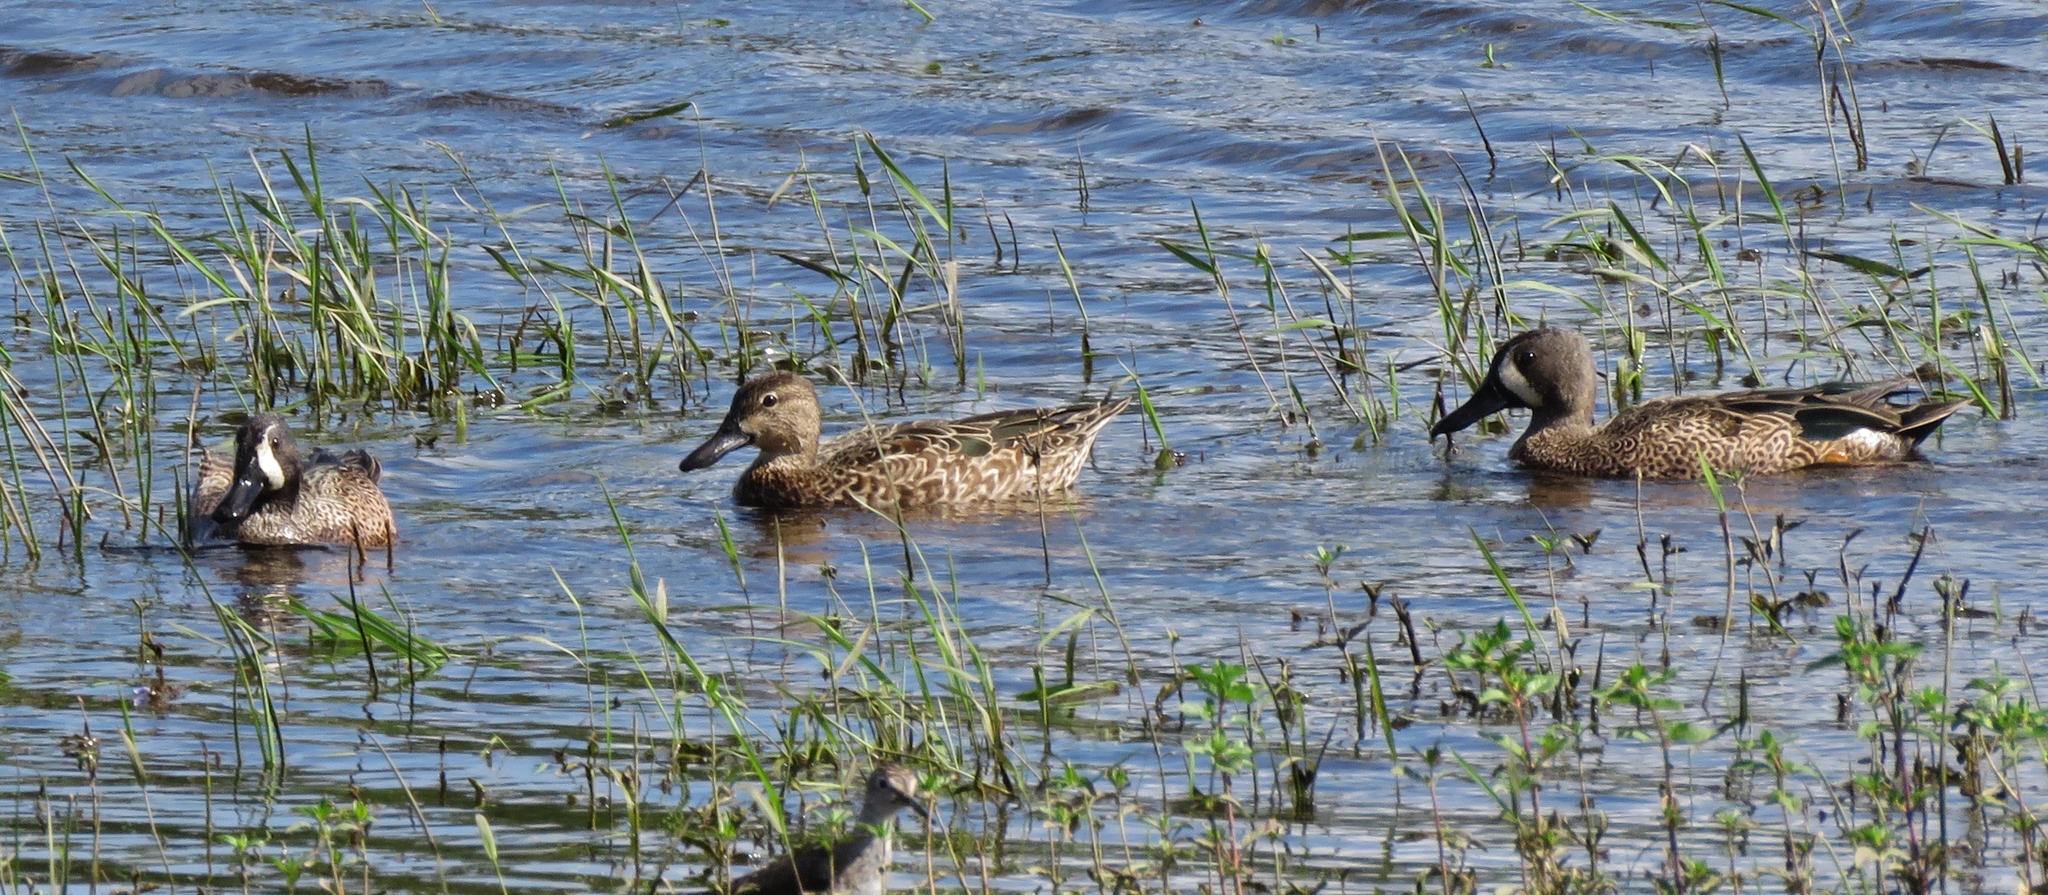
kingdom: Animalia
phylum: Chordata
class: Aves
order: Anseriformes
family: Anatidae
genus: Spatula
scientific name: Spatula discors
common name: Blue-winged teal
